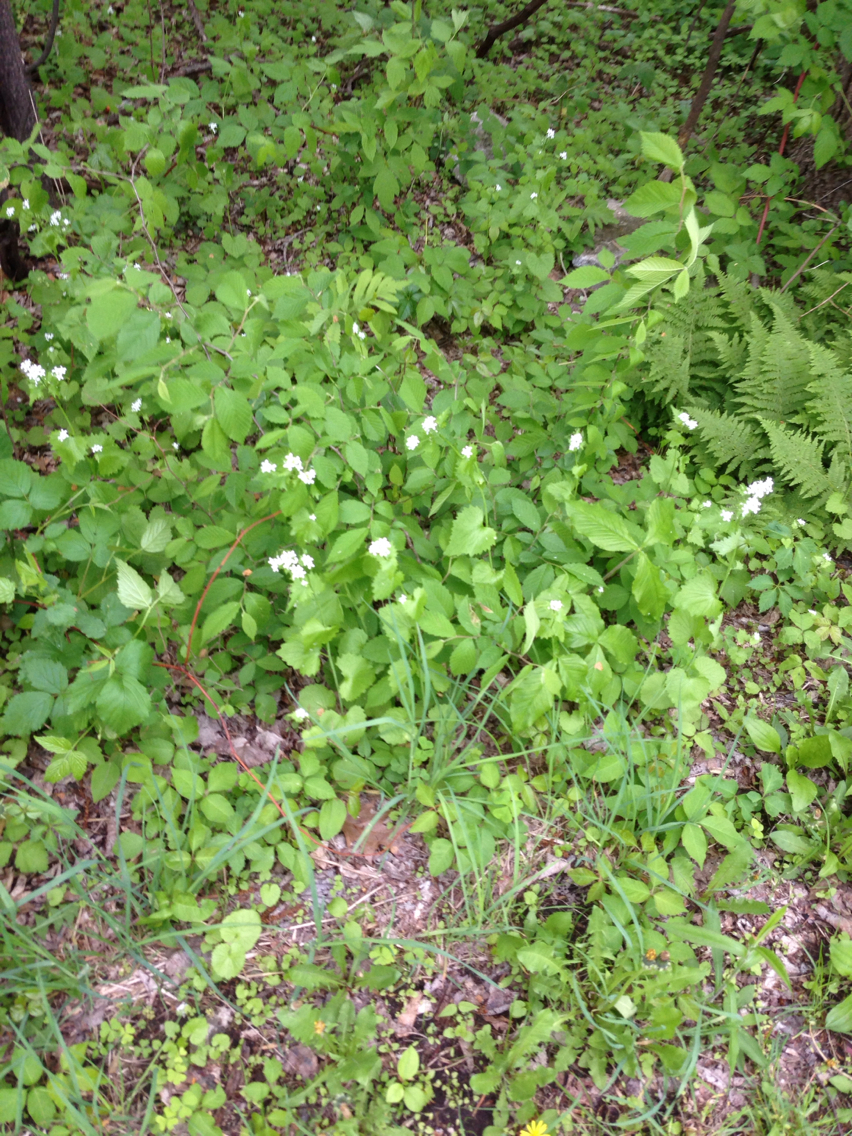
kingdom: Plantae
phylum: Tracheophyta
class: Magnoliopsida
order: Brassicales
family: Brassicaceae
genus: Alliaria
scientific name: Alliaria petiolata
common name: Garlic mustard
